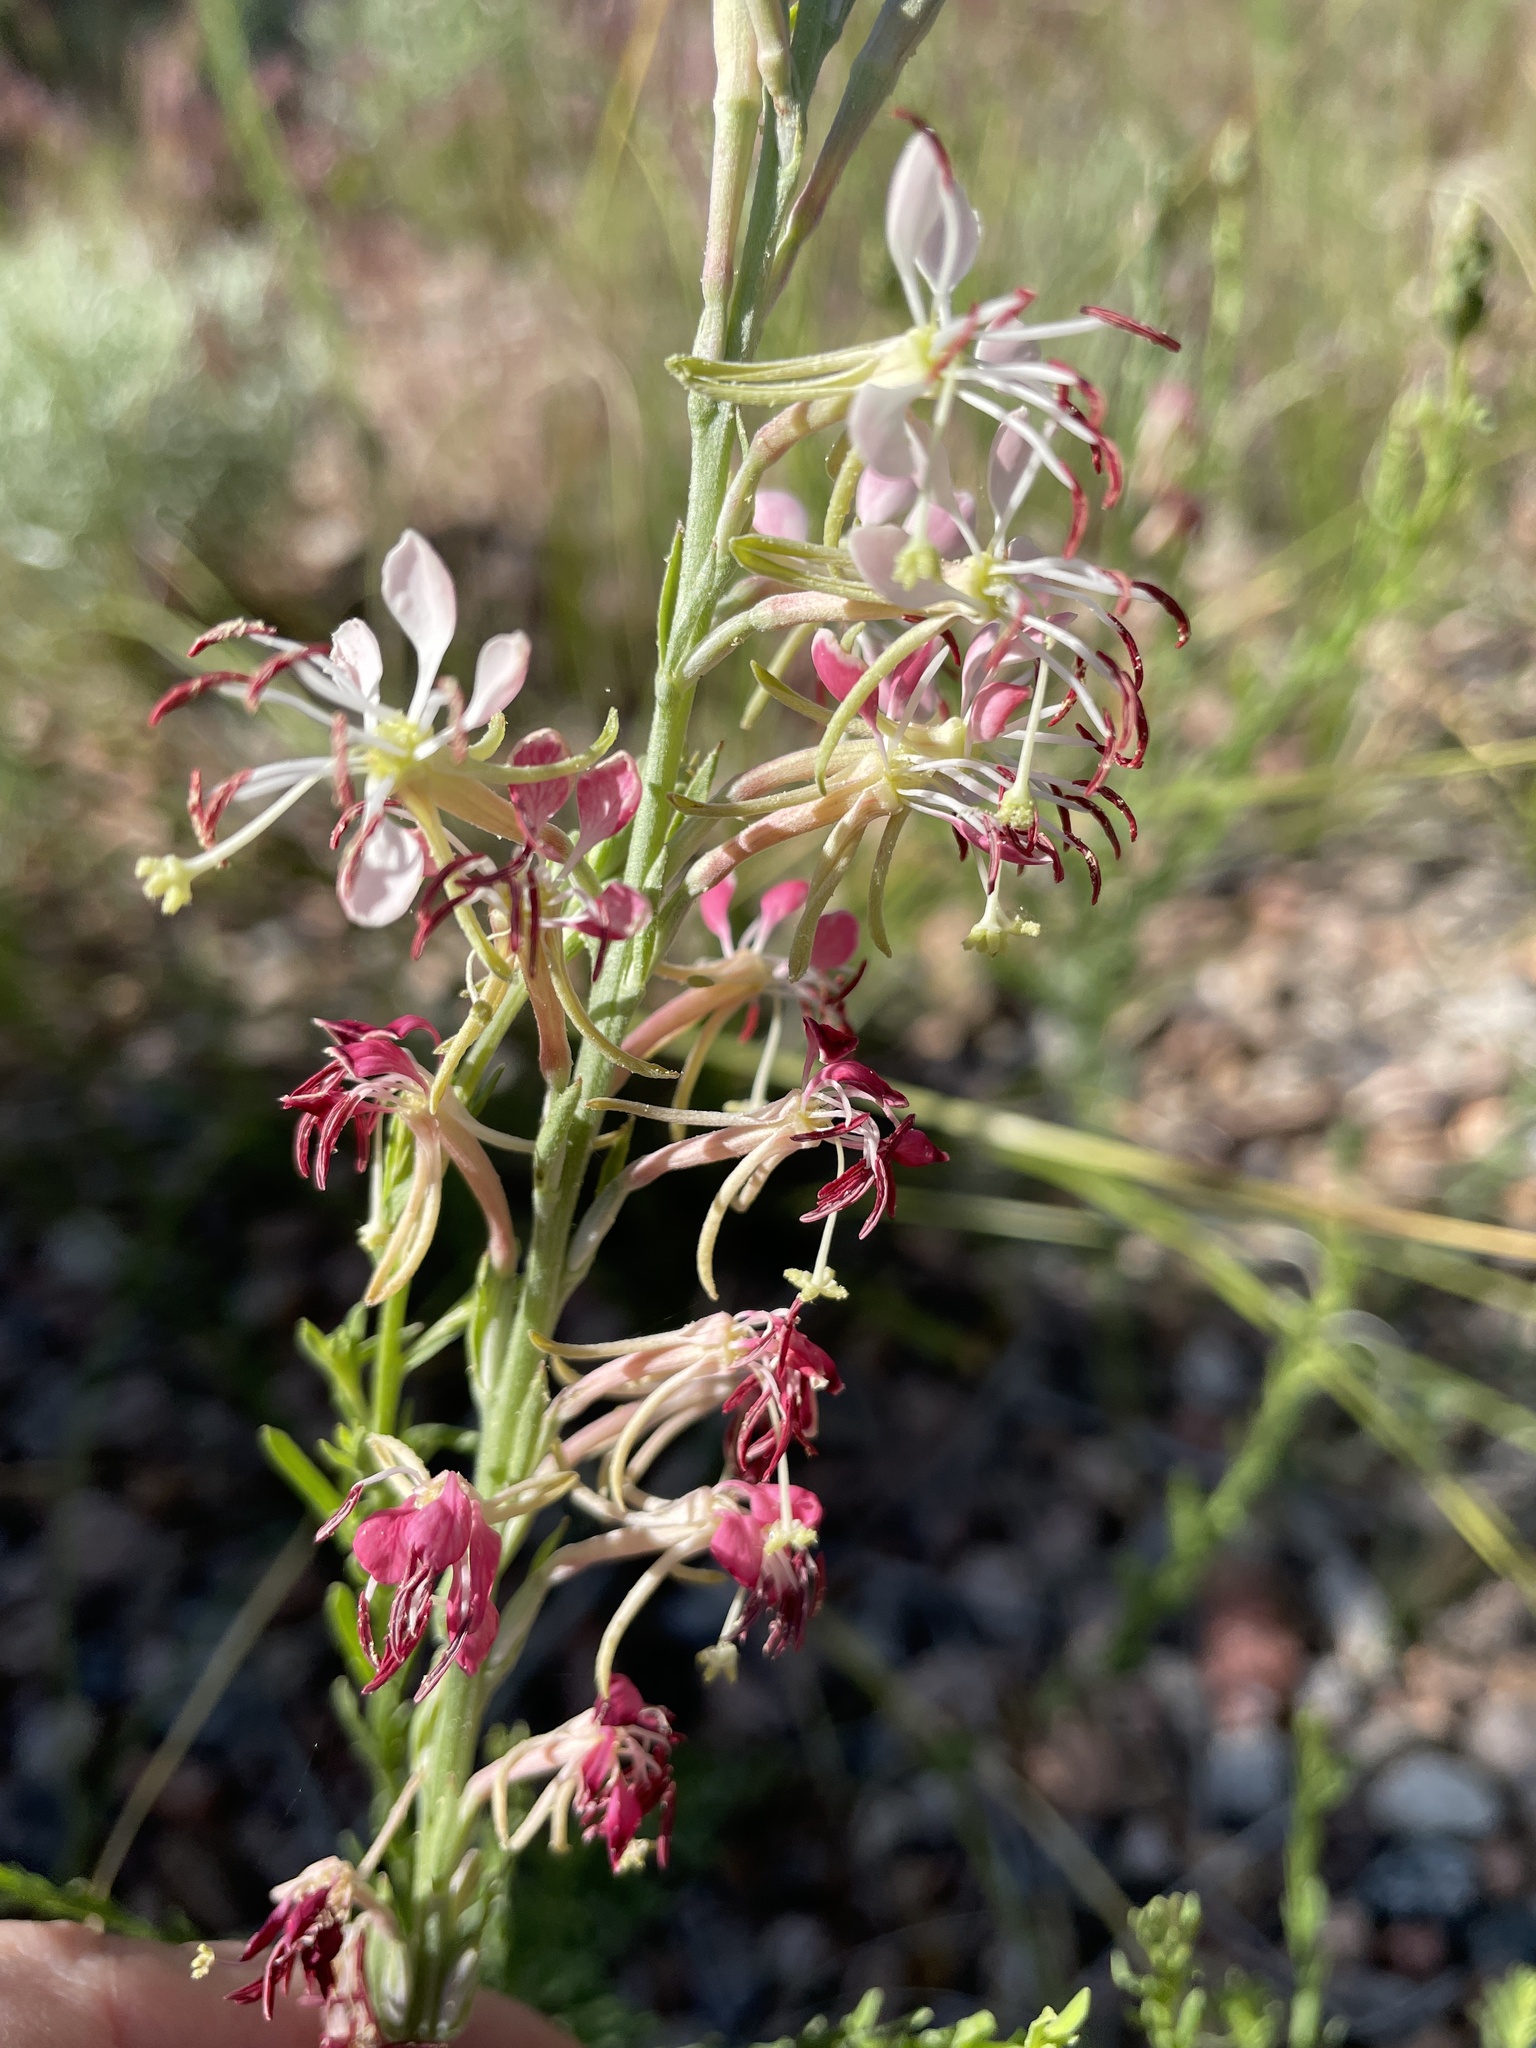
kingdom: Plantae
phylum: Tracheophyta
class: Magnoliopsida
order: Myrtales
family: Onagraceae
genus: Oenothera
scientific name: Oenothera suffrutescens
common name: Scarlet beeblossom
